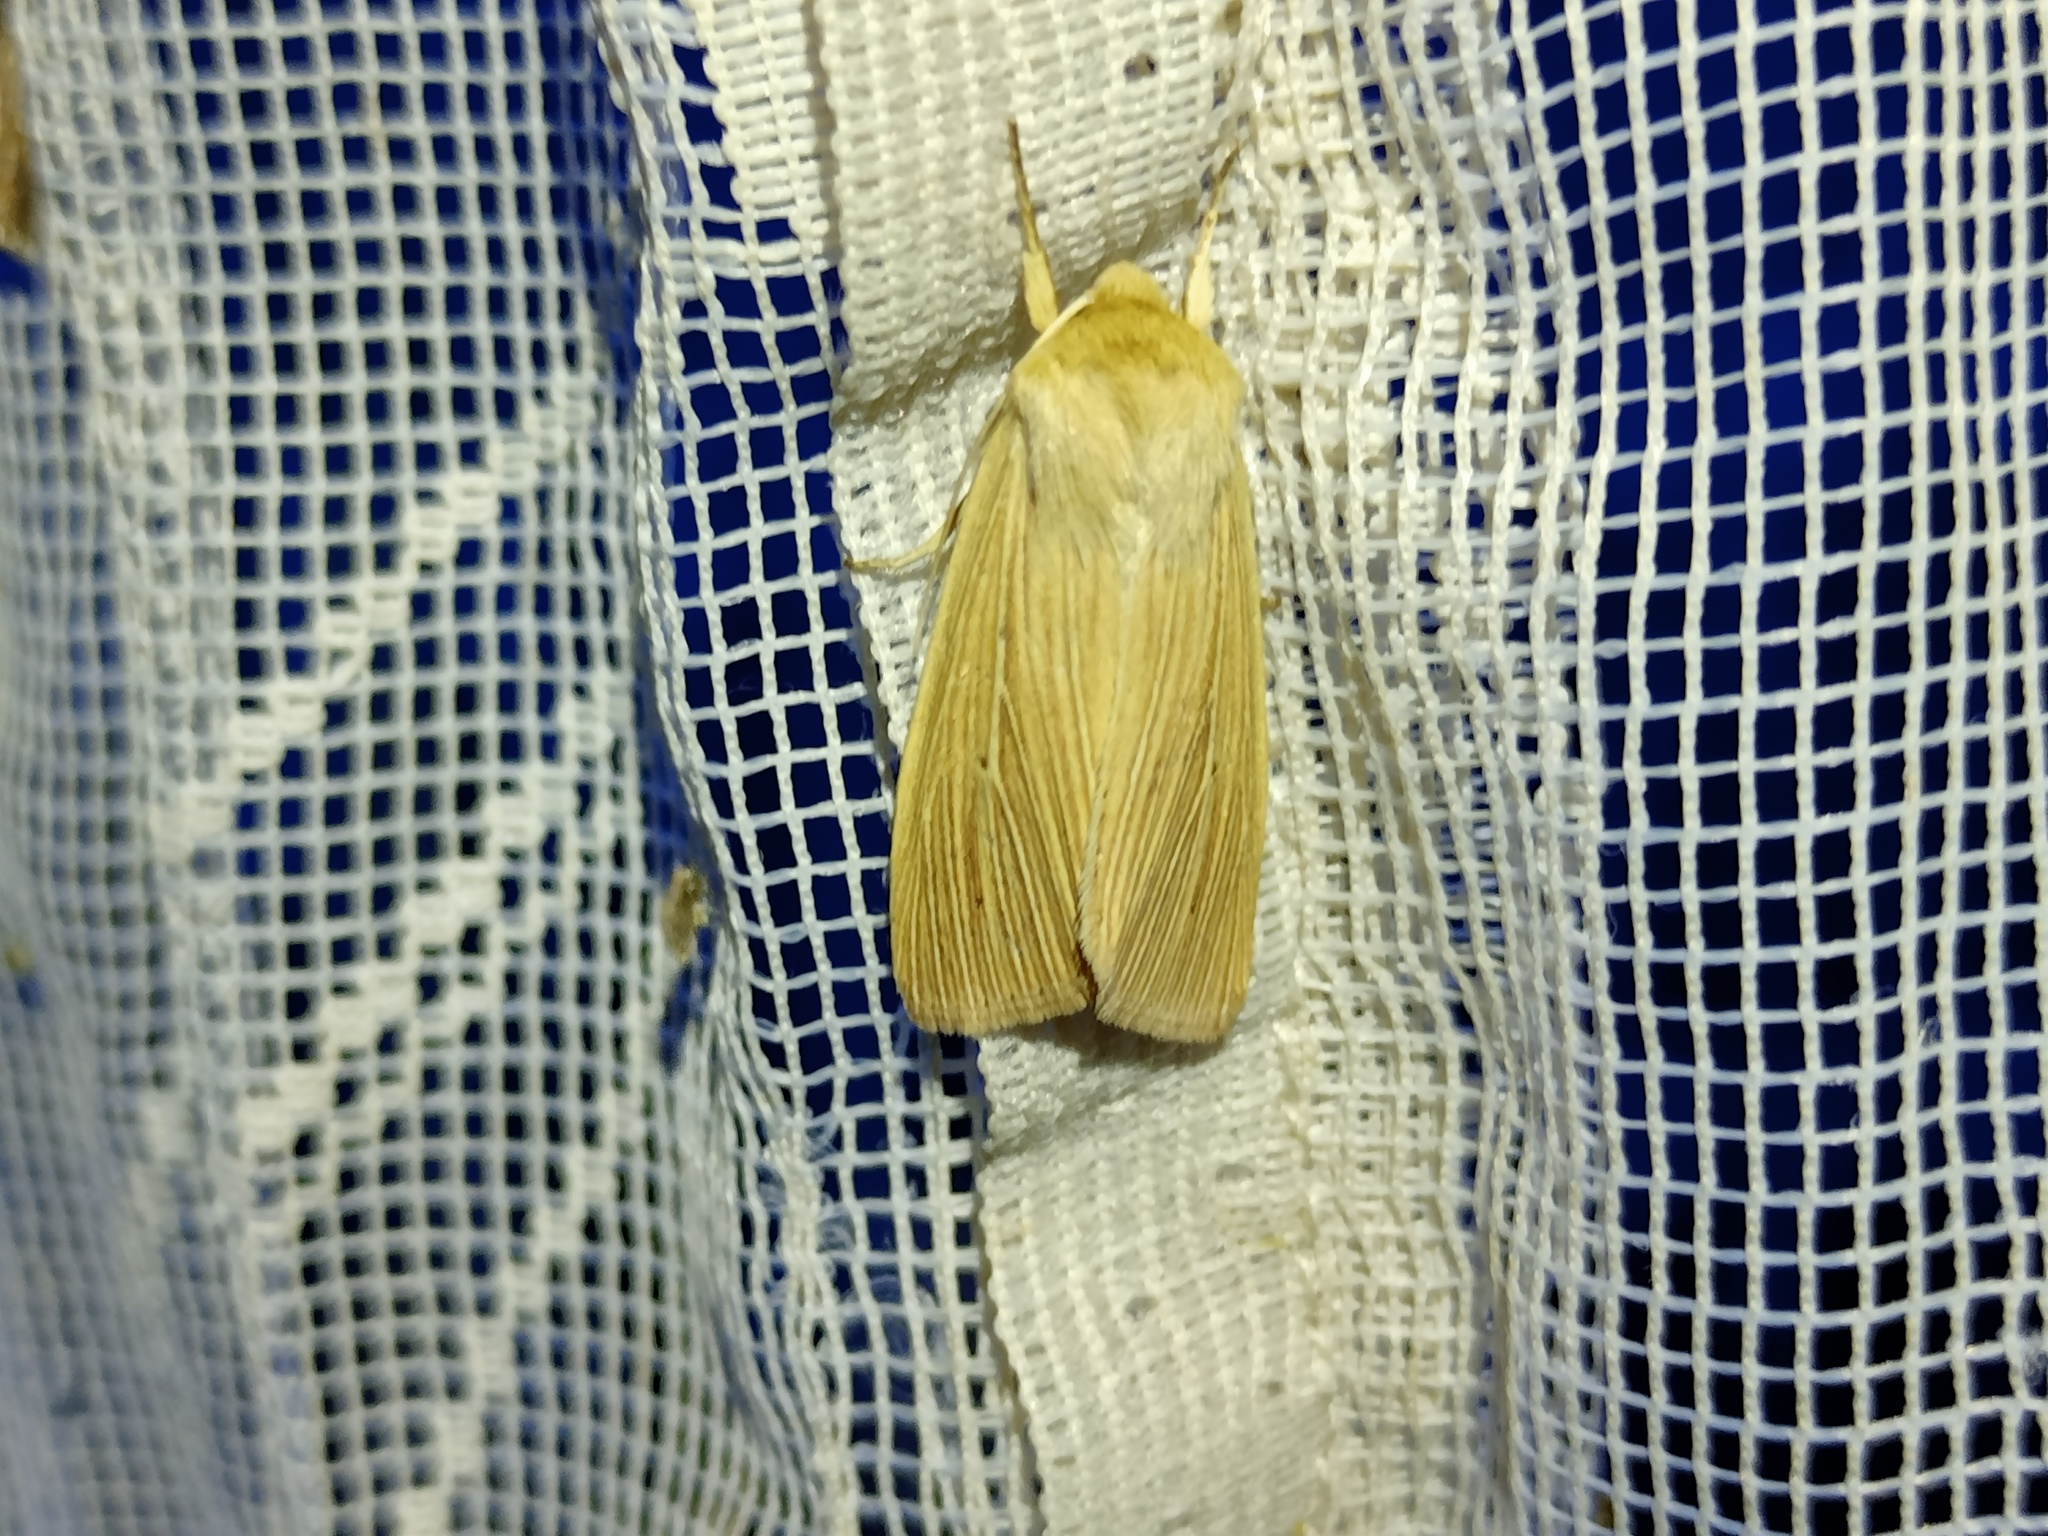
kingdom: Animalia
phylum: Arthropoda
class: Insecta
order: Lepidoptera
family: Noctuidae
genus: Mythimna
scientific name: Mythimna pallens
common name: Common wainscot
